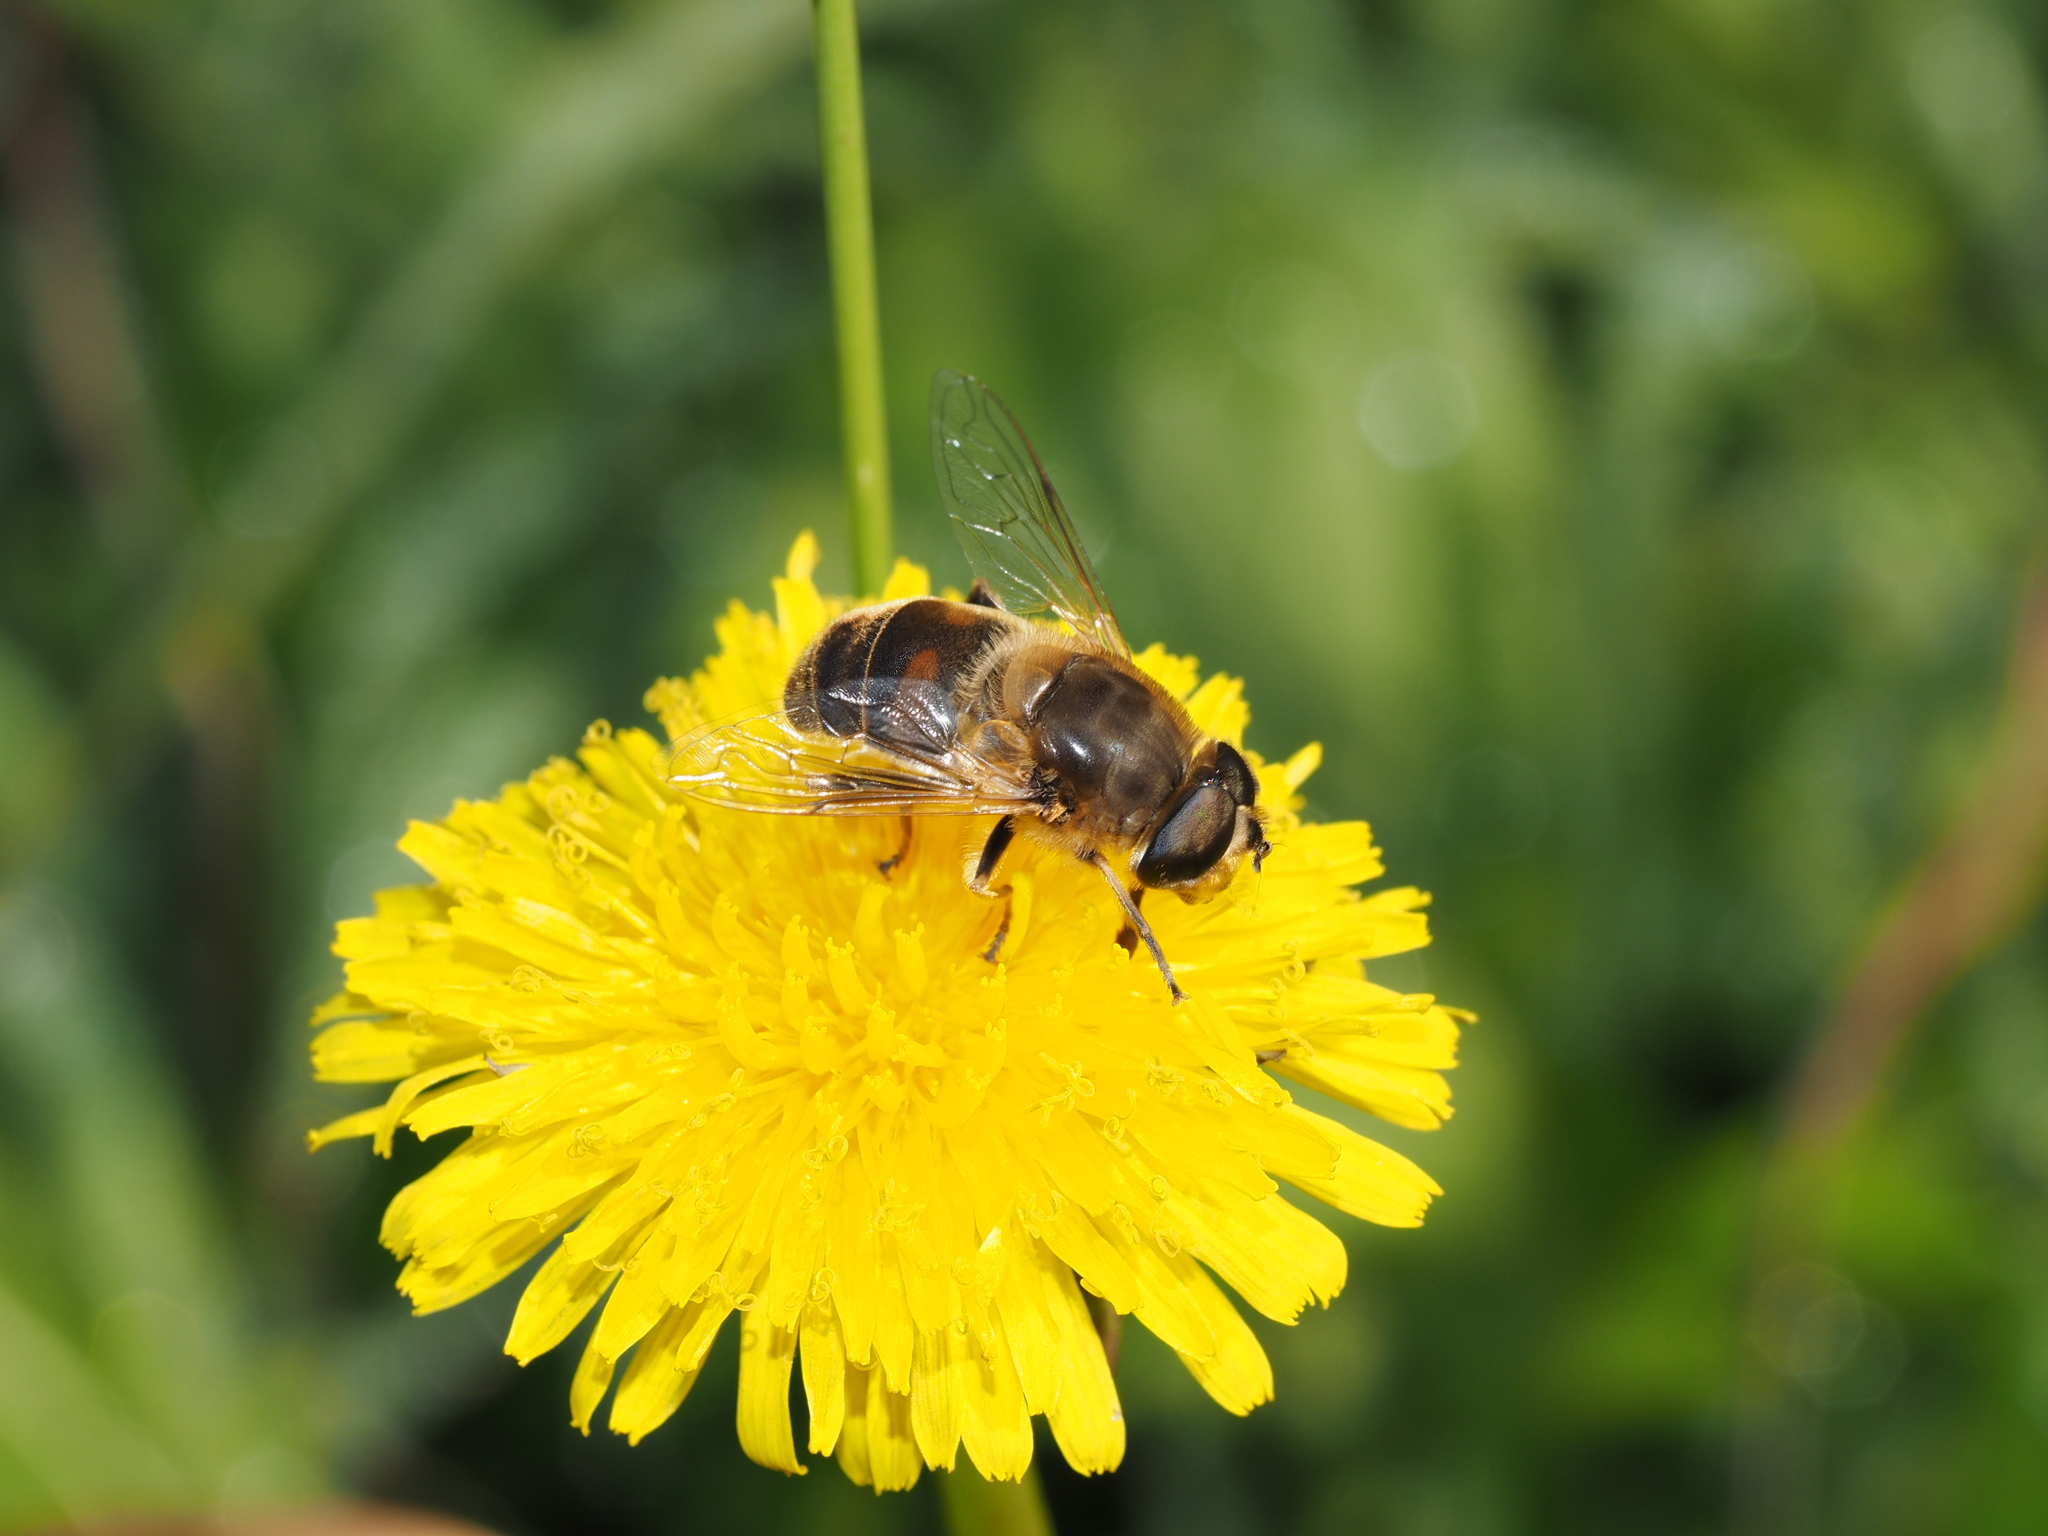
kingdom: Animalia
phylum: Arthropoda
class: Insecta
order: Diptera
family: Syrphidae
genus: Eristalis
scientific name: Eristalis tenax
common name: Drone fly
